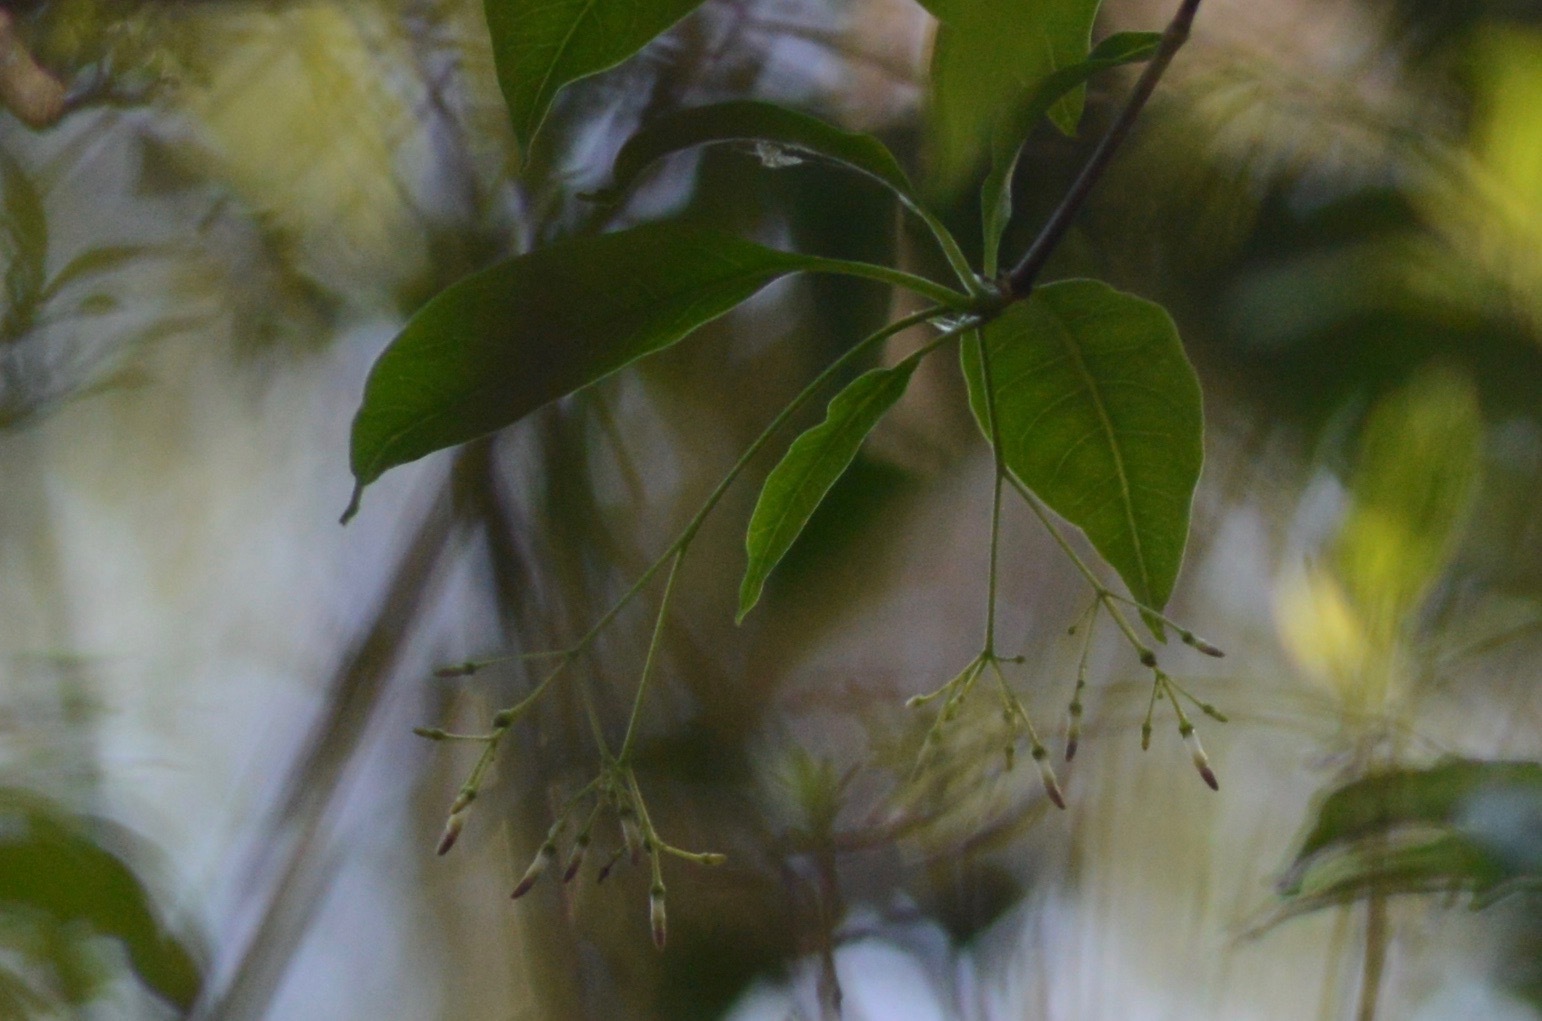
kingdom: Animalia
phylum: Chordata
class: Aves
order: Apodiformes
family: Trochilidae
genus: Lophornis
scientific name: Lophornis magnificus
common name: Frilled coquette
